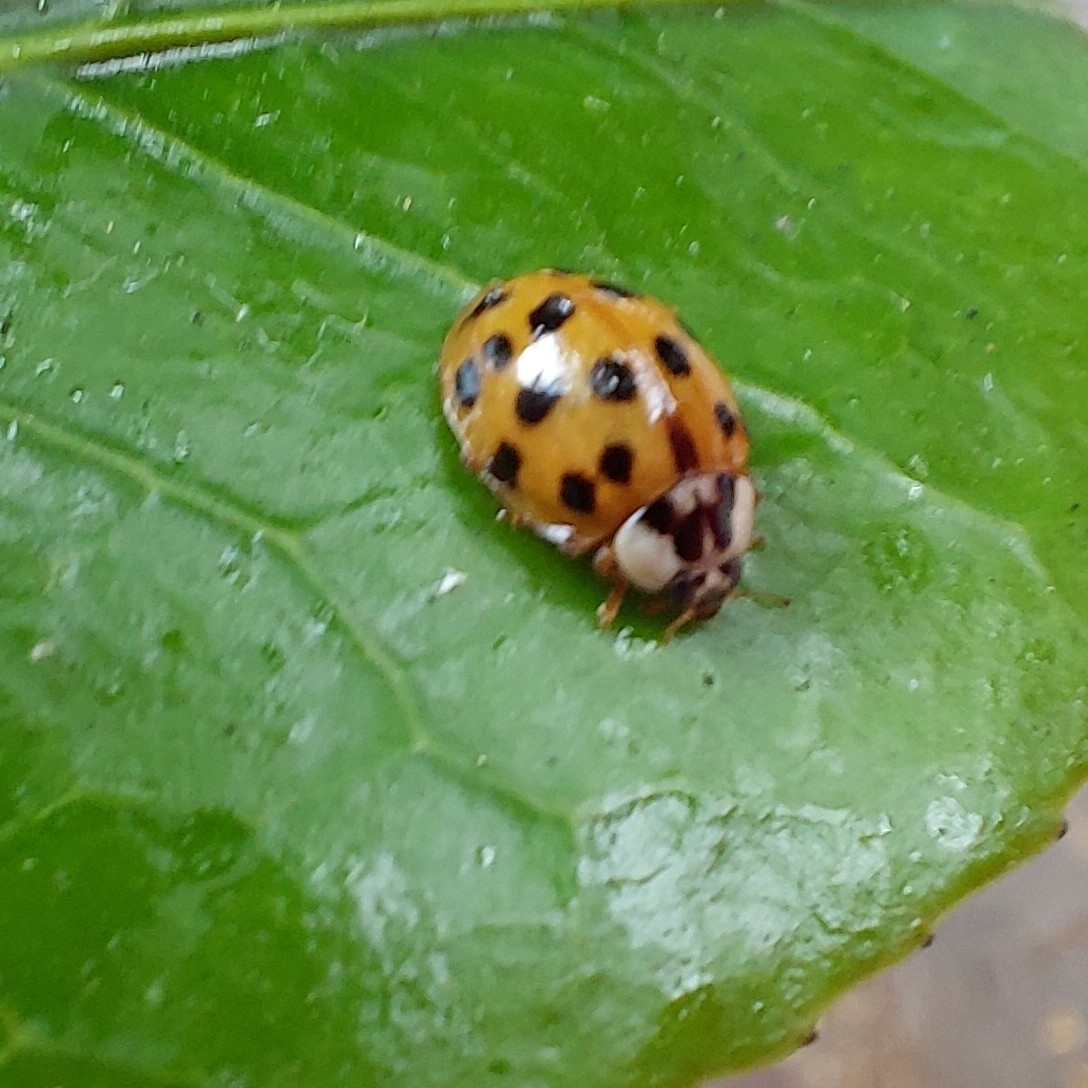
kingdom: Animalia
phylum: Arthropoda
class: Insecta
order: Coleoptera
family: Coccinellidae
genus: Harmonia
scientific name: Harmonia axyridis
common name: Harlequin ladybird
